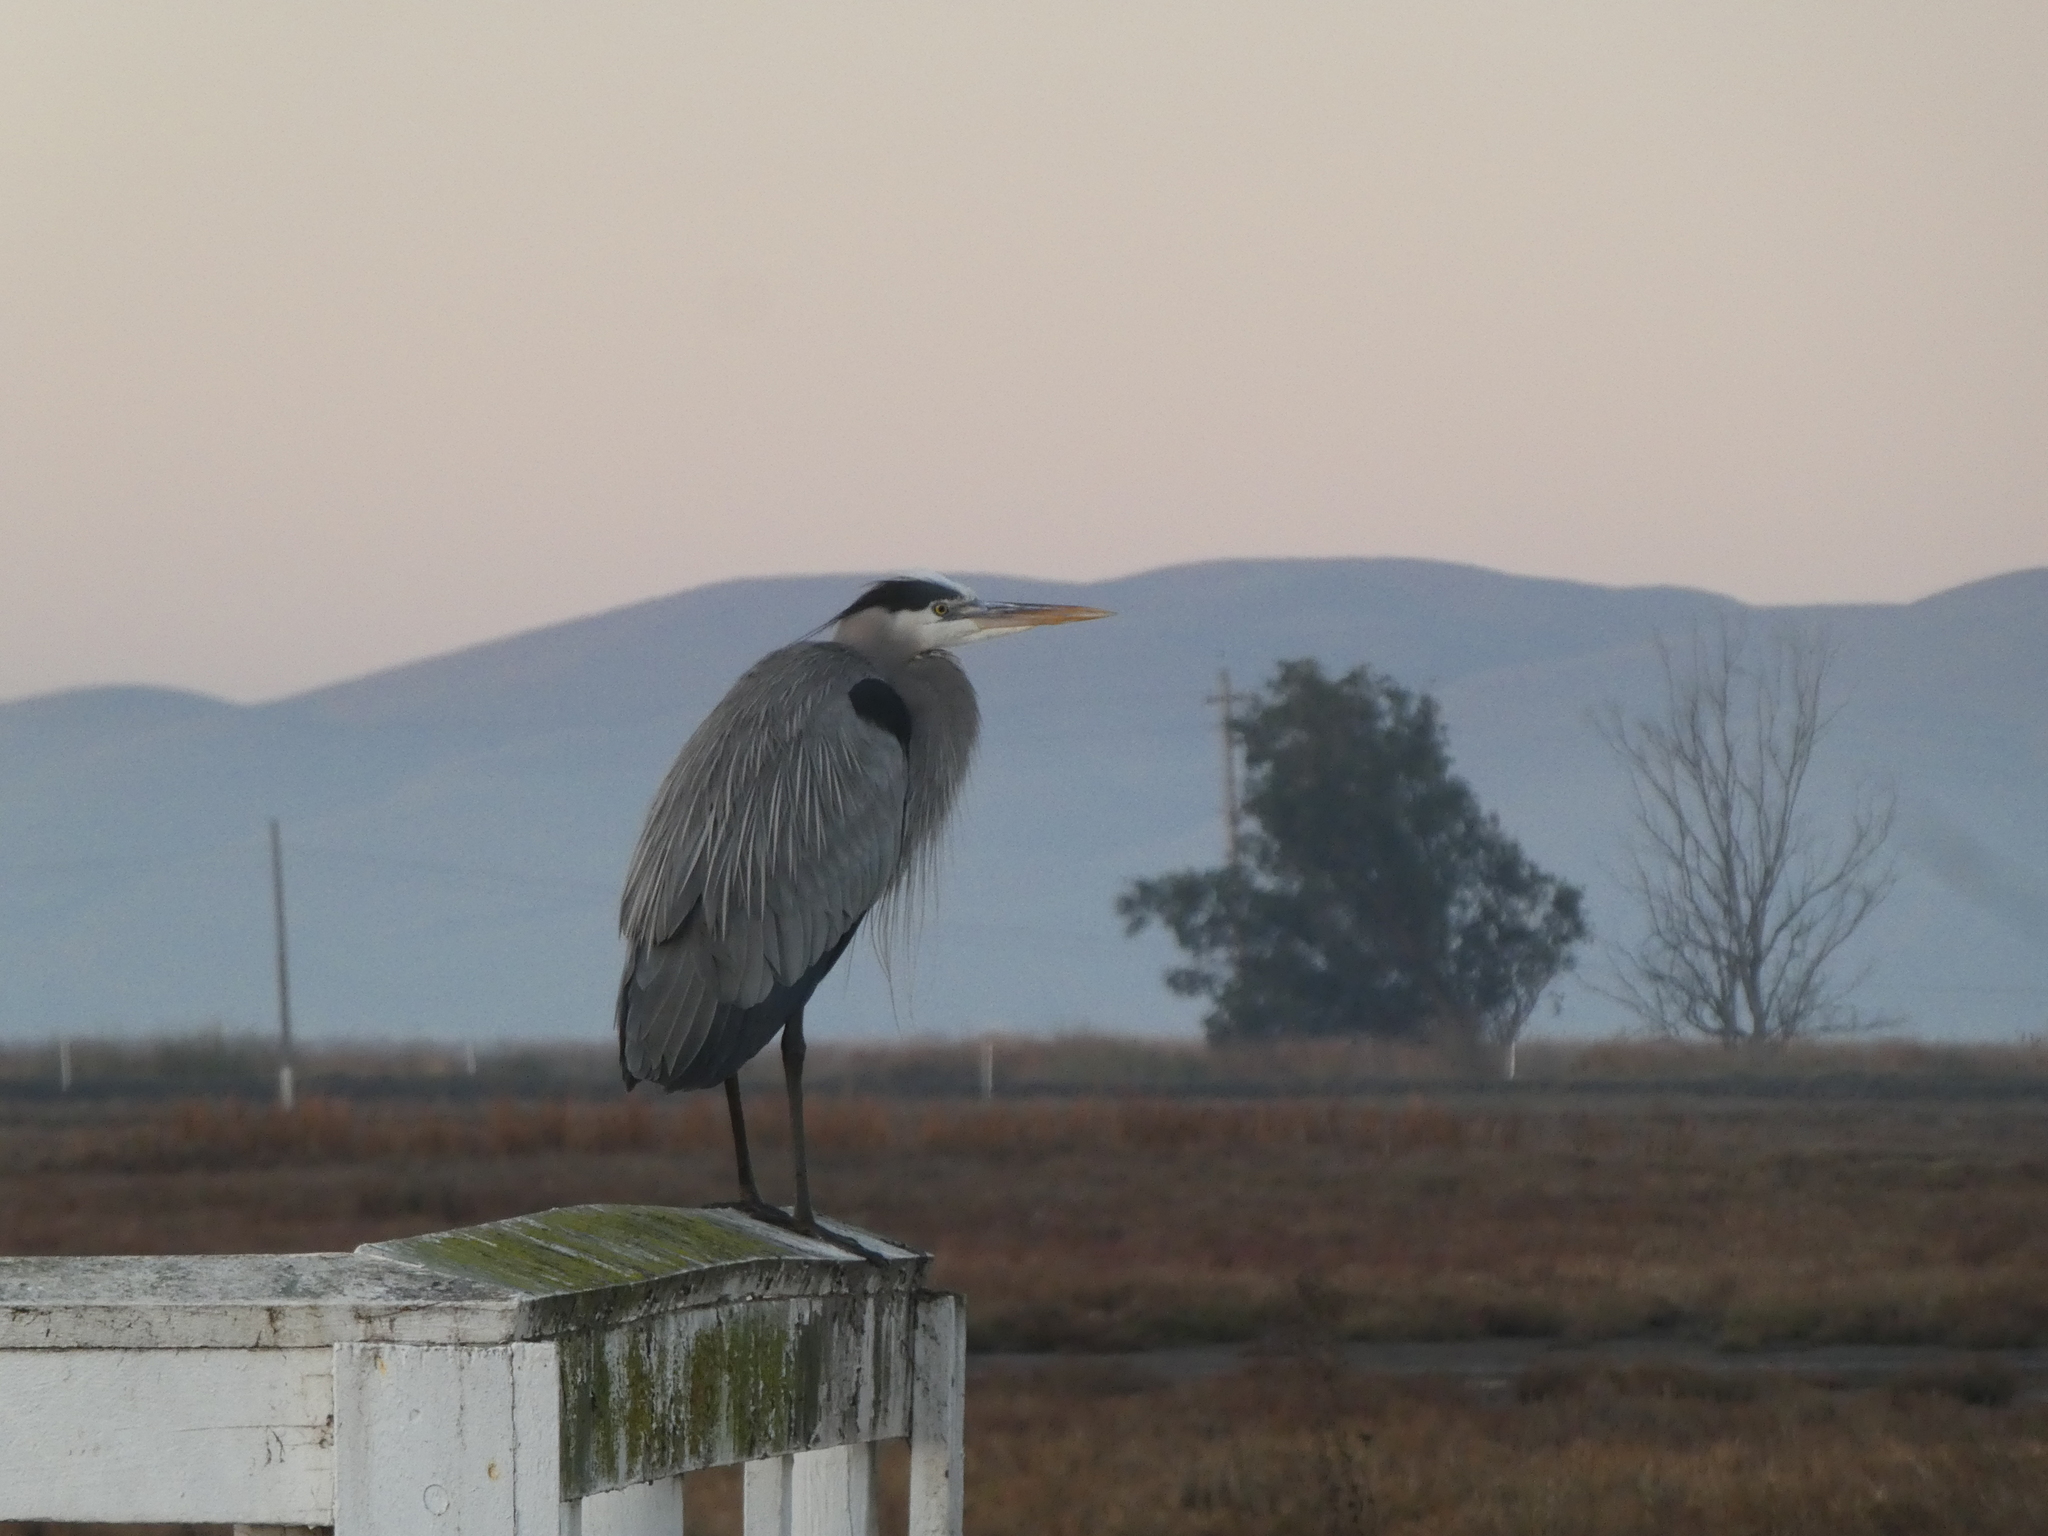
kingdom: Animalia
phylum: Chordata
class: Aves
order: Pelecaniformes
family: Ardeidae
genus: Ardea
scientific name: Ardea herodias
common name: Great blue heron
